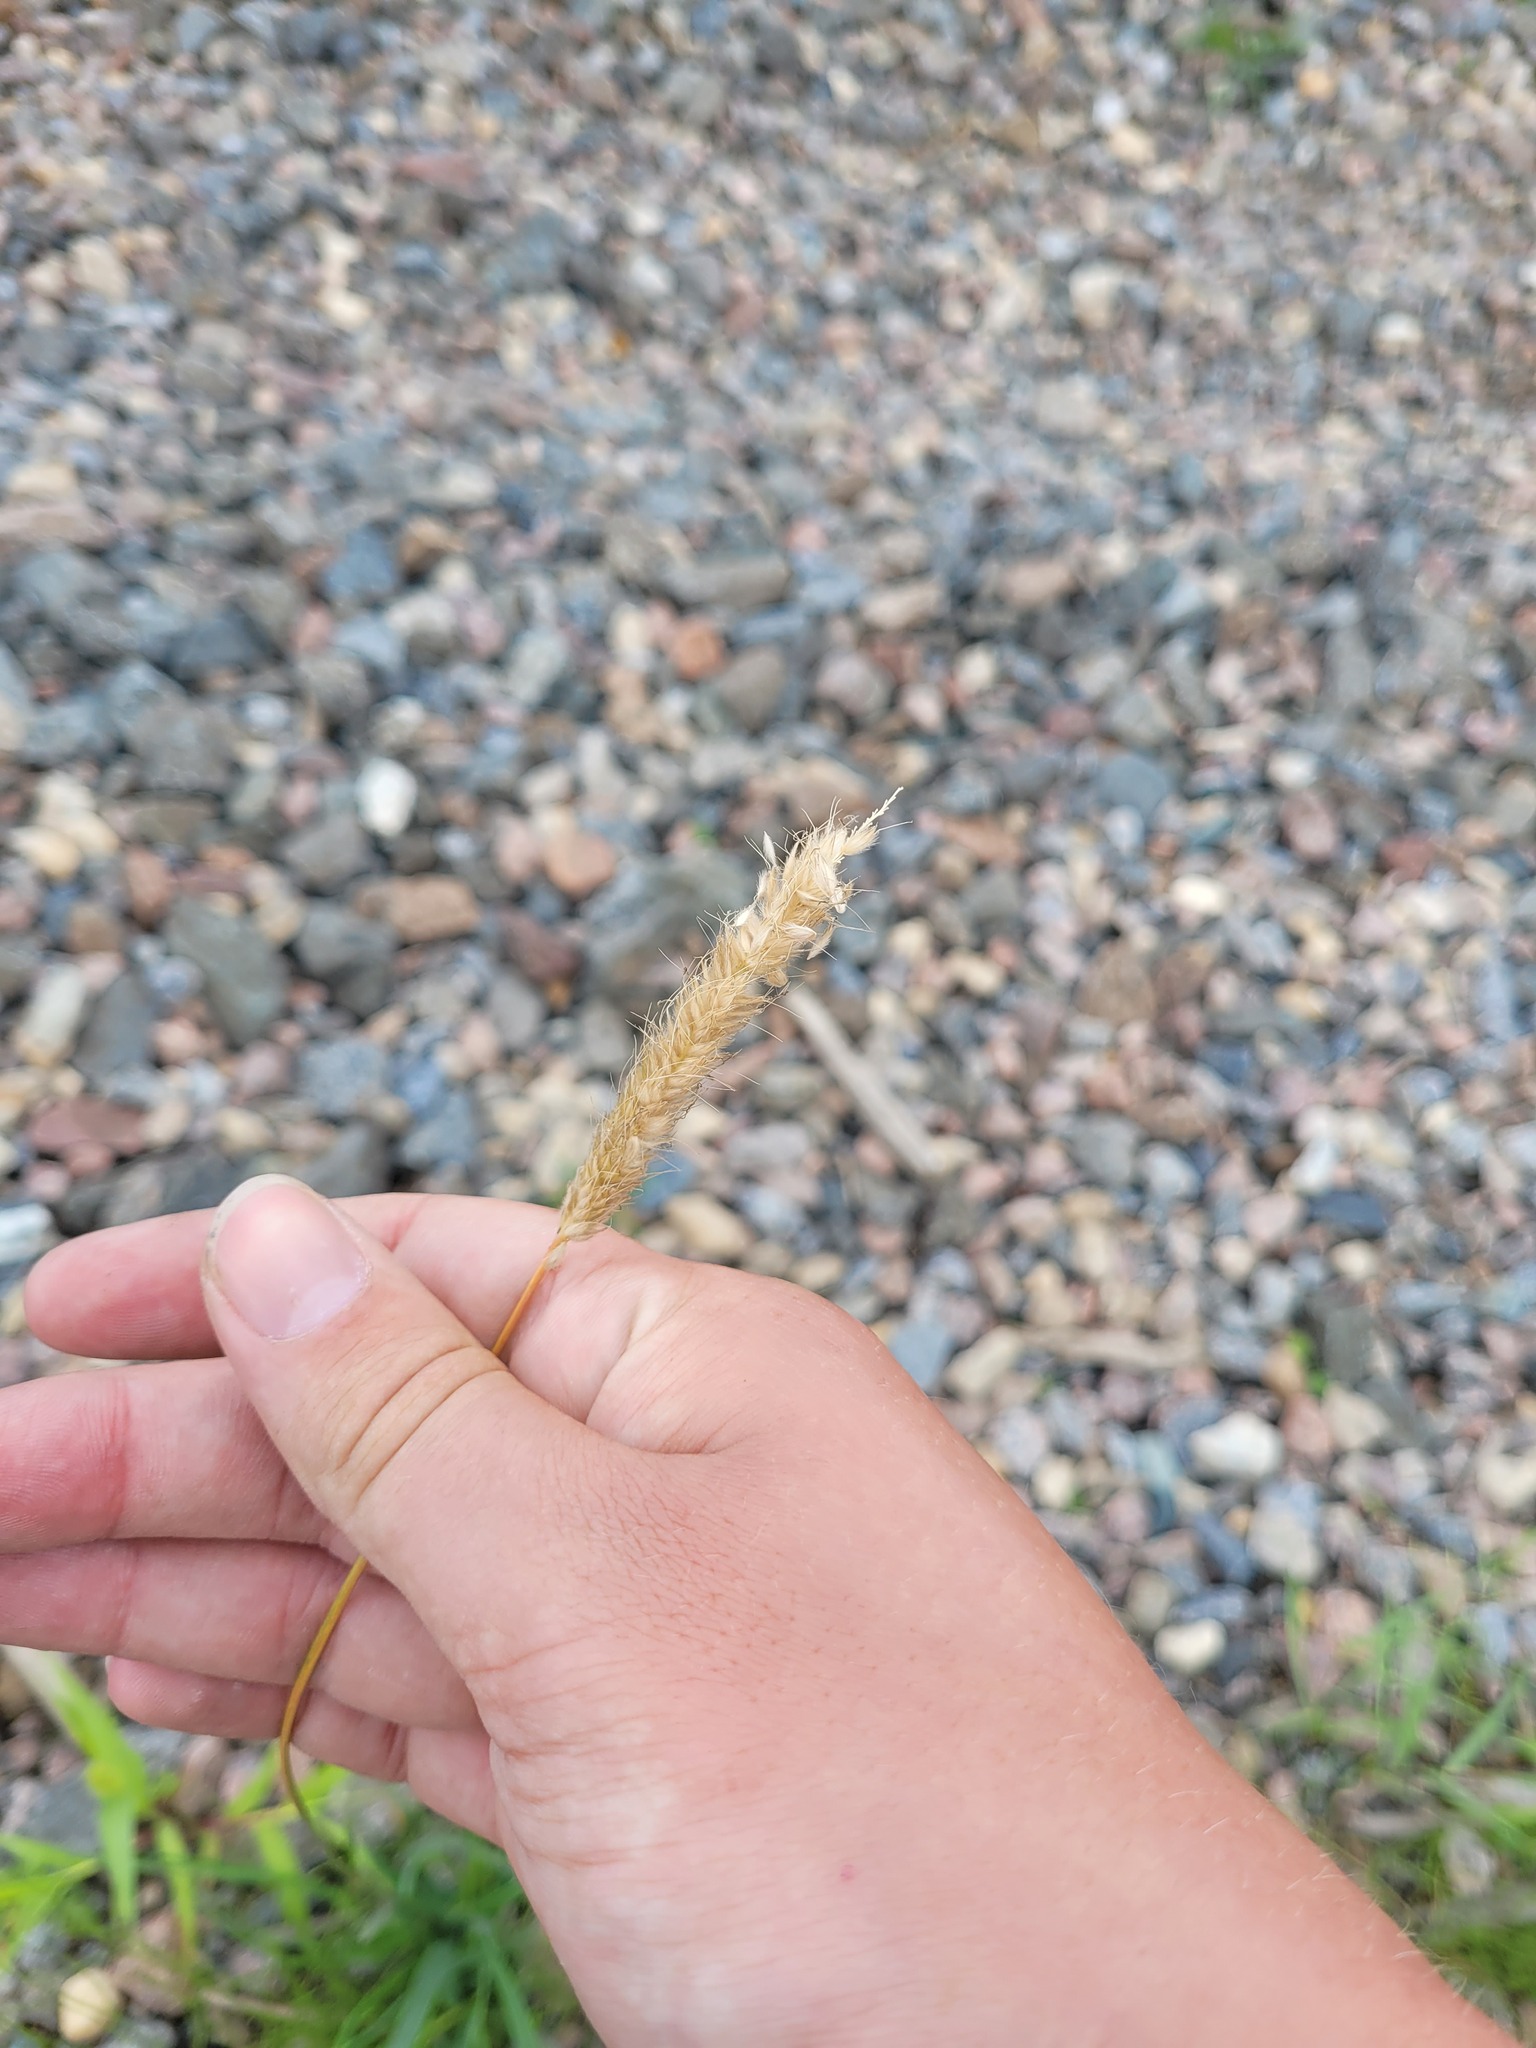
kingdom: Plantae
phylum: Tracheophyta
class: Liliopsida
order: Poales
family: Poaceae
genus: Alopecurus
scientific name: Alopecurus pratensis
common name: Meadow foxtail
